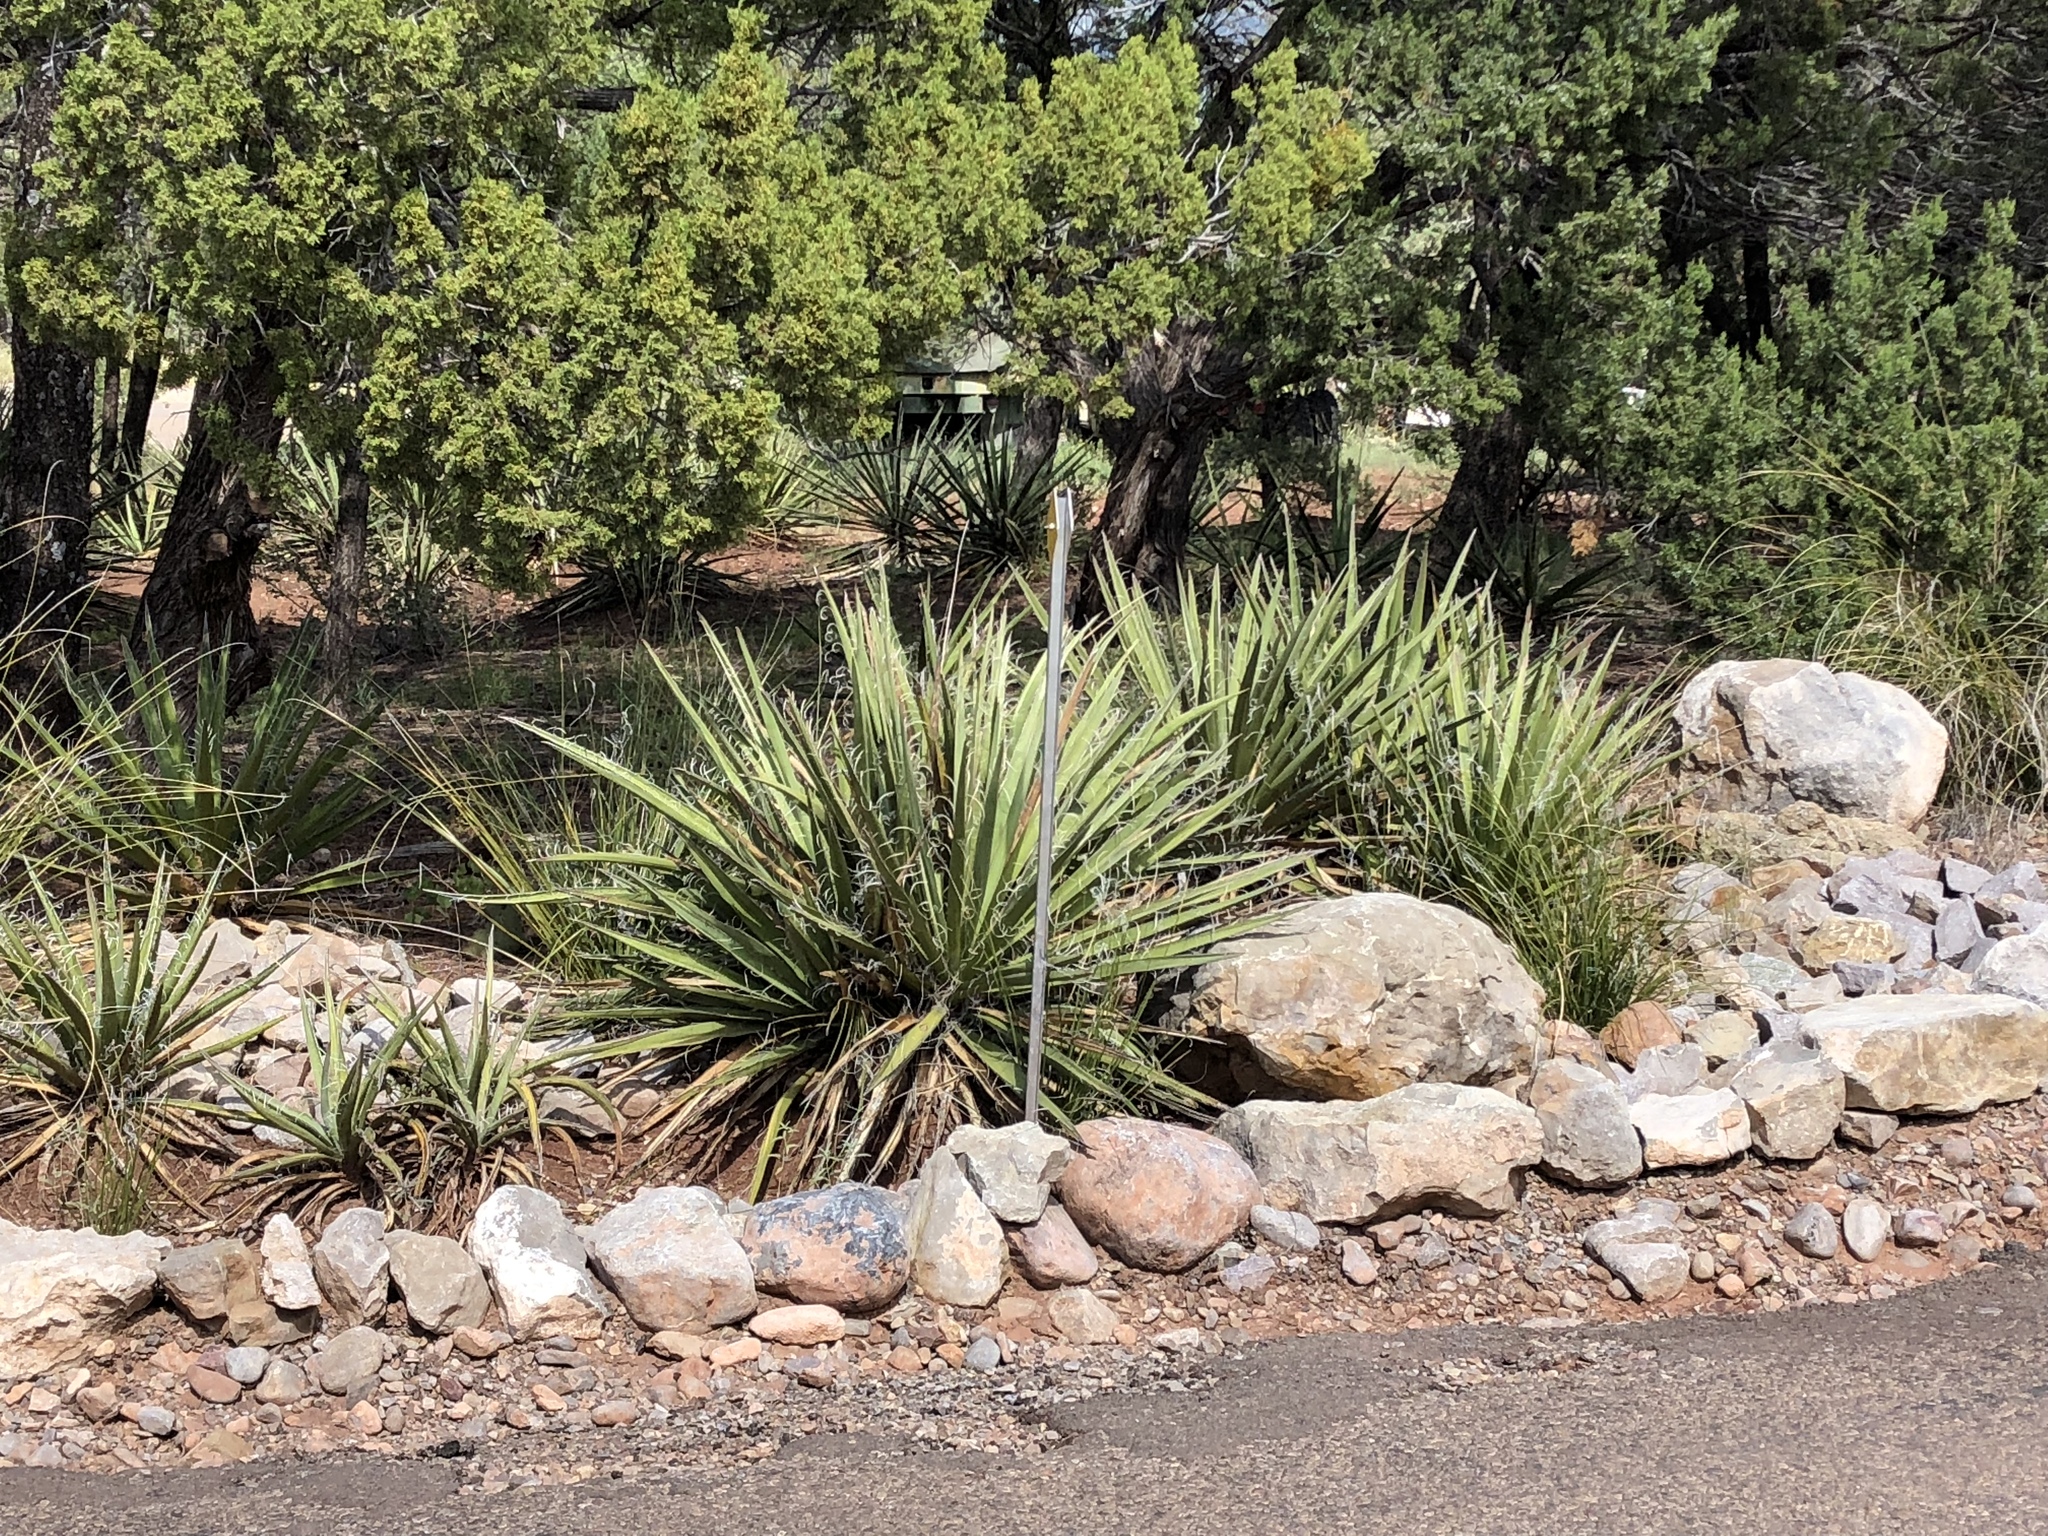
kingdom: Plantae
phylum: Tracheophyta
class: Liliopsida
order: Asparagales
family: Asparagaceae
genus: Yucca
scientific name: Yucca baccata
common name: Banana yucca
